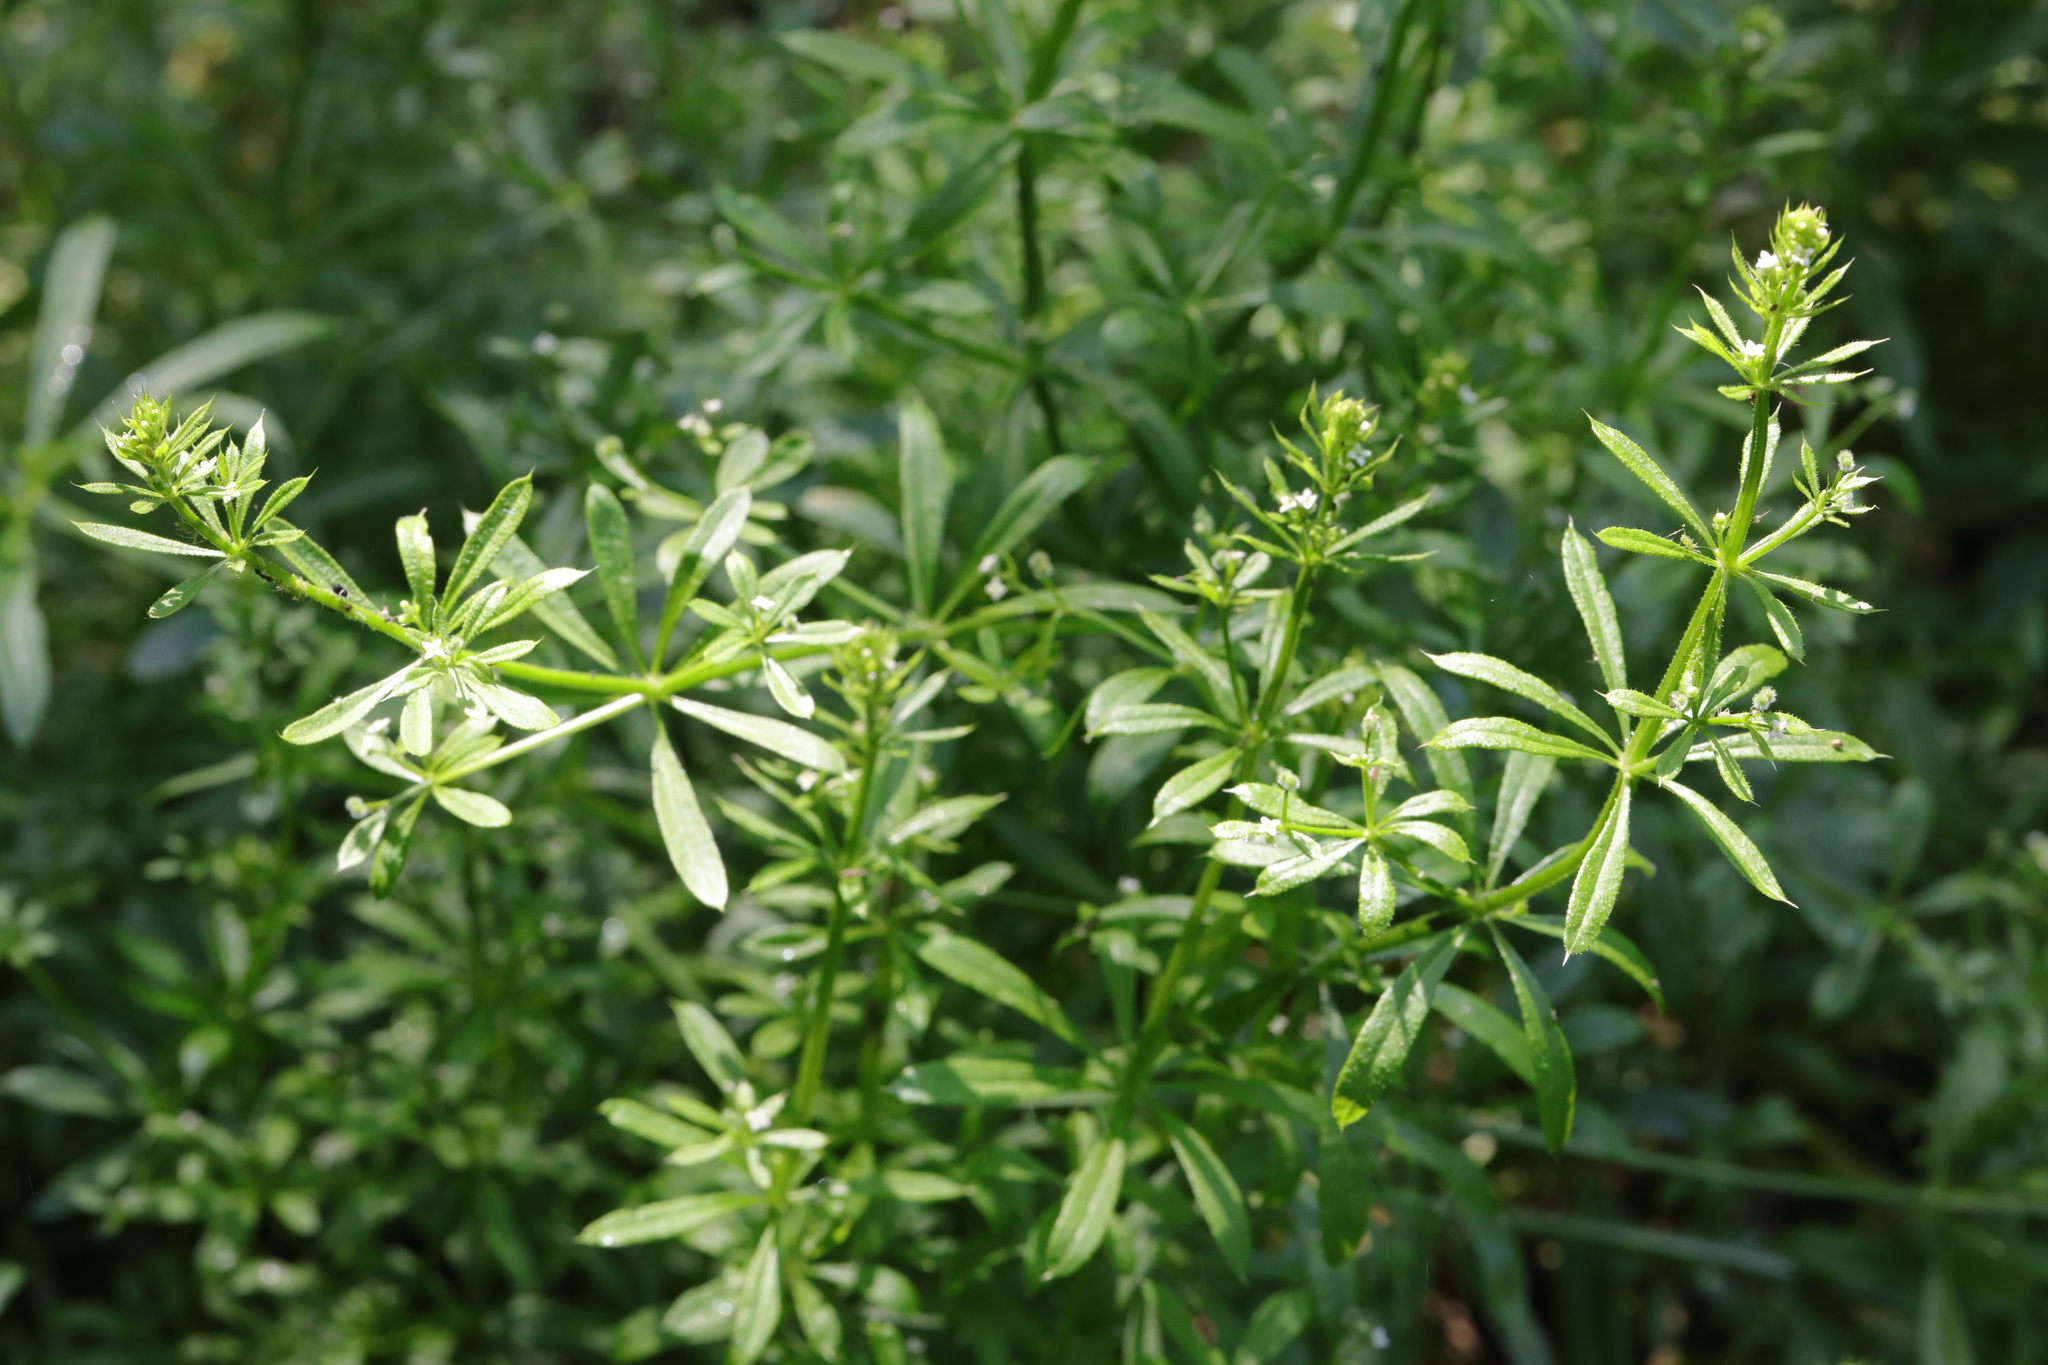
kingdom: Plantae
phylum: Tracheophyta
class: Magnoliopsida
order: Gentianales
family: Rubiaceae
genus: Galium
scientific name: Galium aparine
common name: Cleavers
